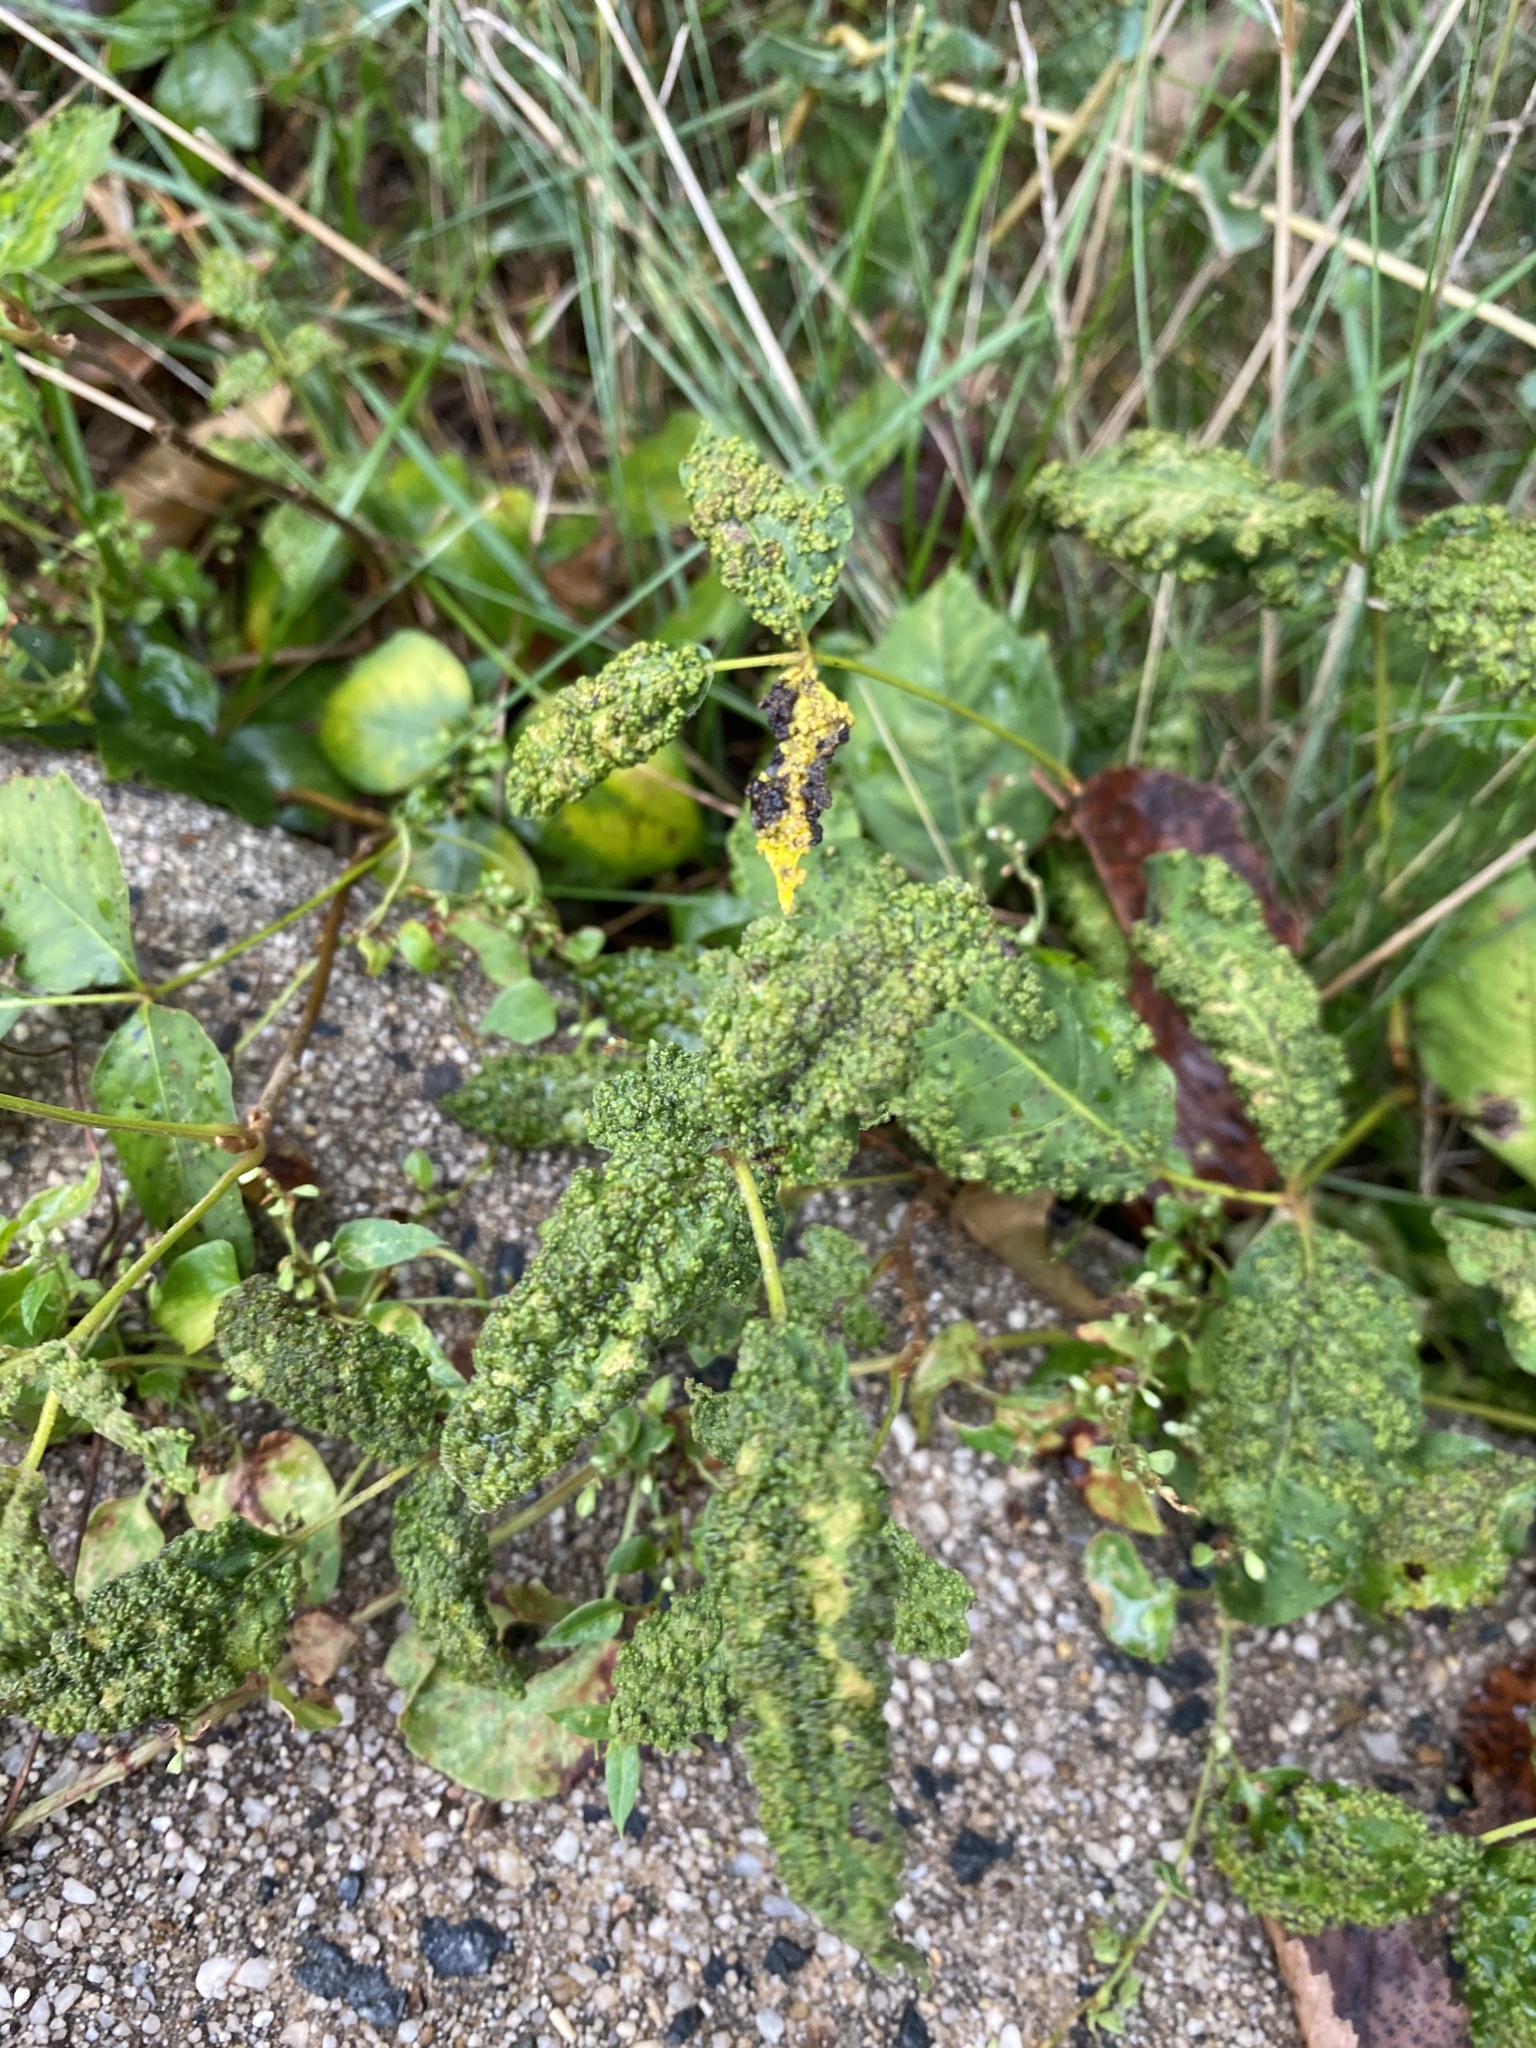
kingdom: Animalia
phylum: Arthropoda
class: Arachnida
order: Trombidiformes
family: Eriophyidae
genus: Aculops
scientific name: Aculops
